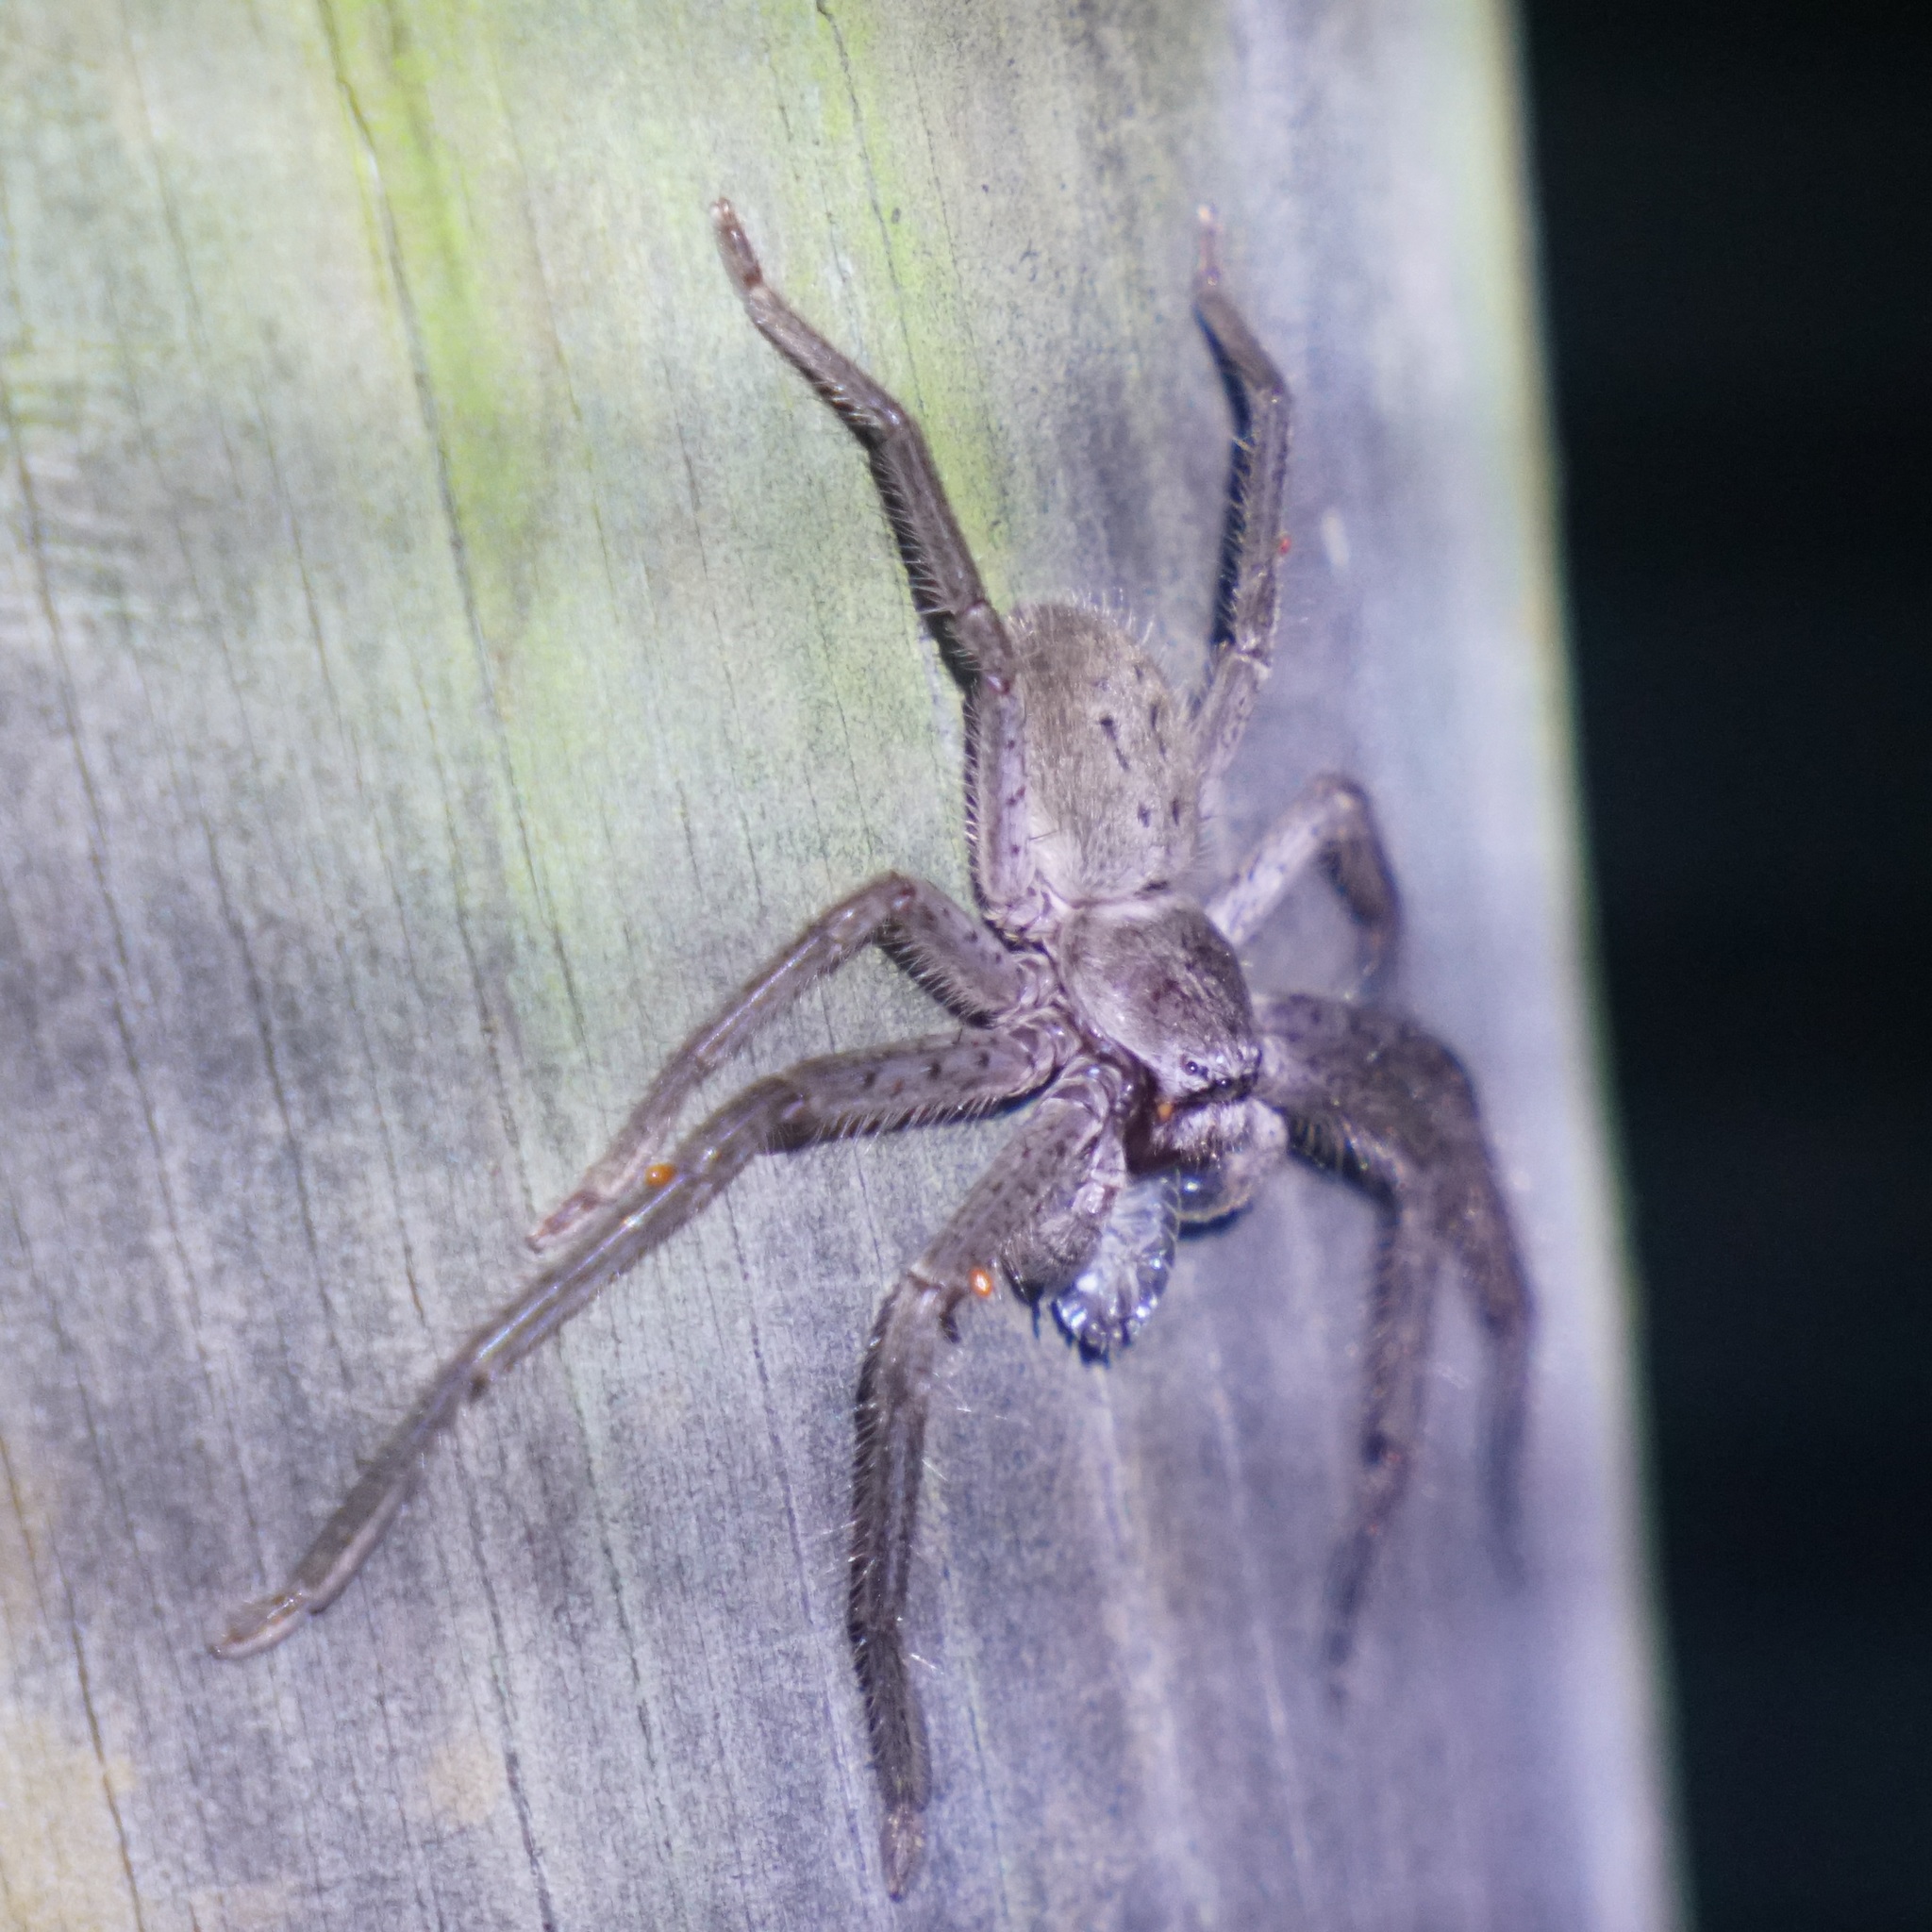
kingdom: Animalia
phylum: Arthropoda
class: Arachnida
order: Araneae
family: Sparassidae
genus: Isopeda
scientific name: Isopeda villosa
